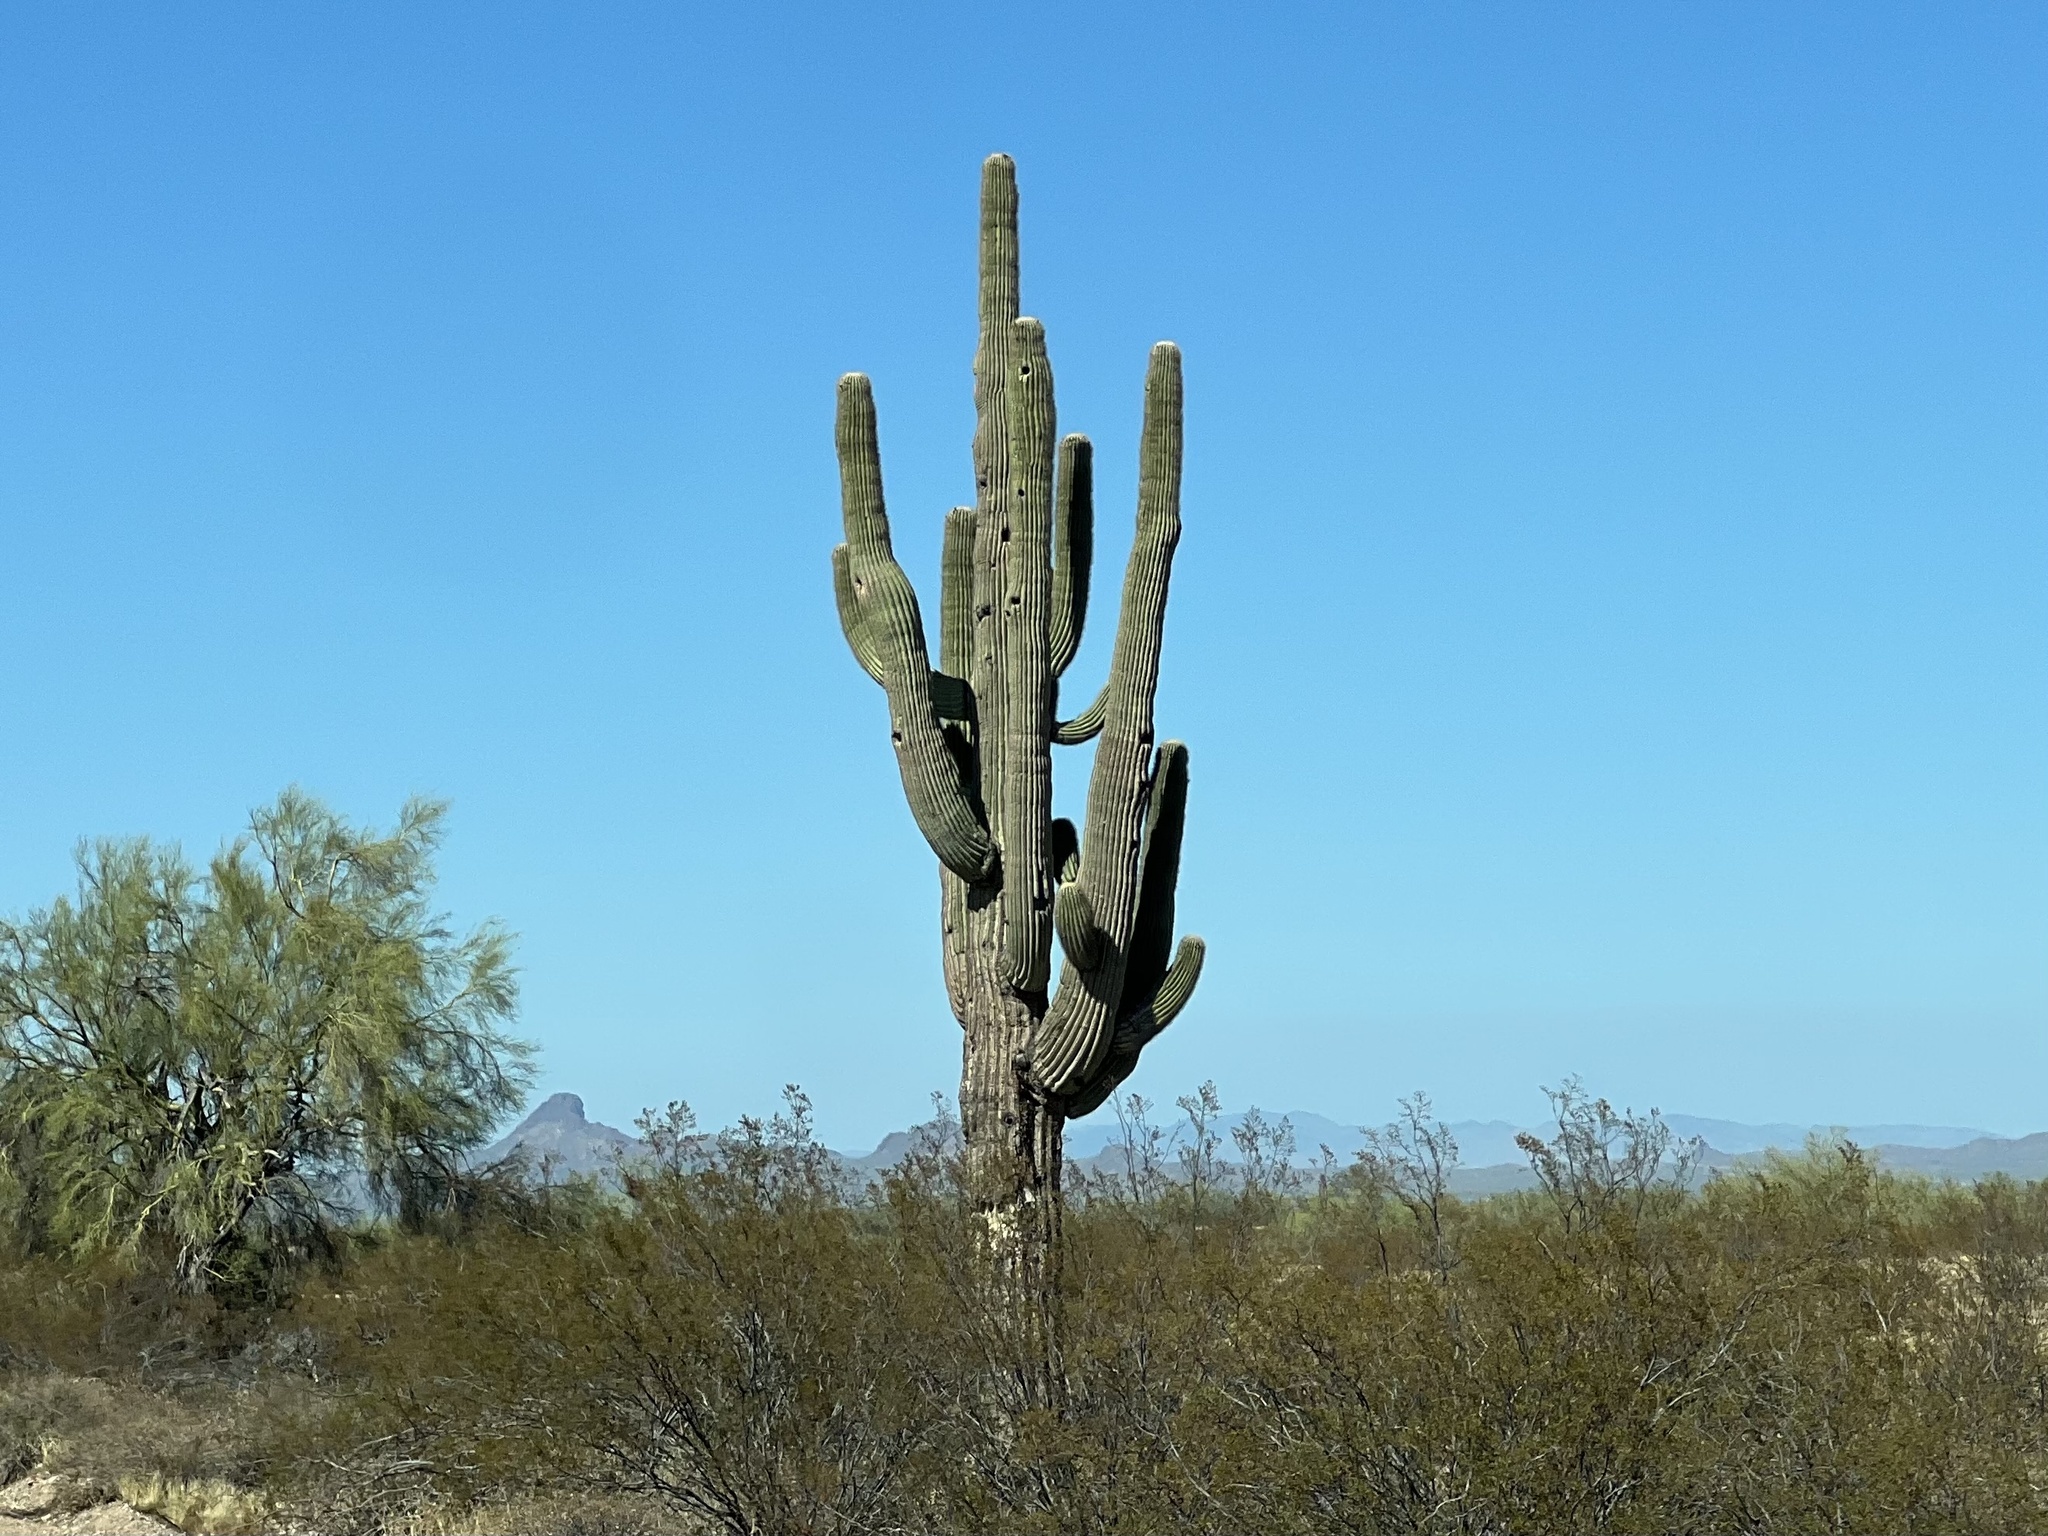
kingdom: Plantae
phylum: Tracheophyta
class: Magnoliopsida
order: Caryophyllales
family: Cactaceae
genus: Carnegiea
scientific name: Carnegiea gigantea
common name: Saguaro
